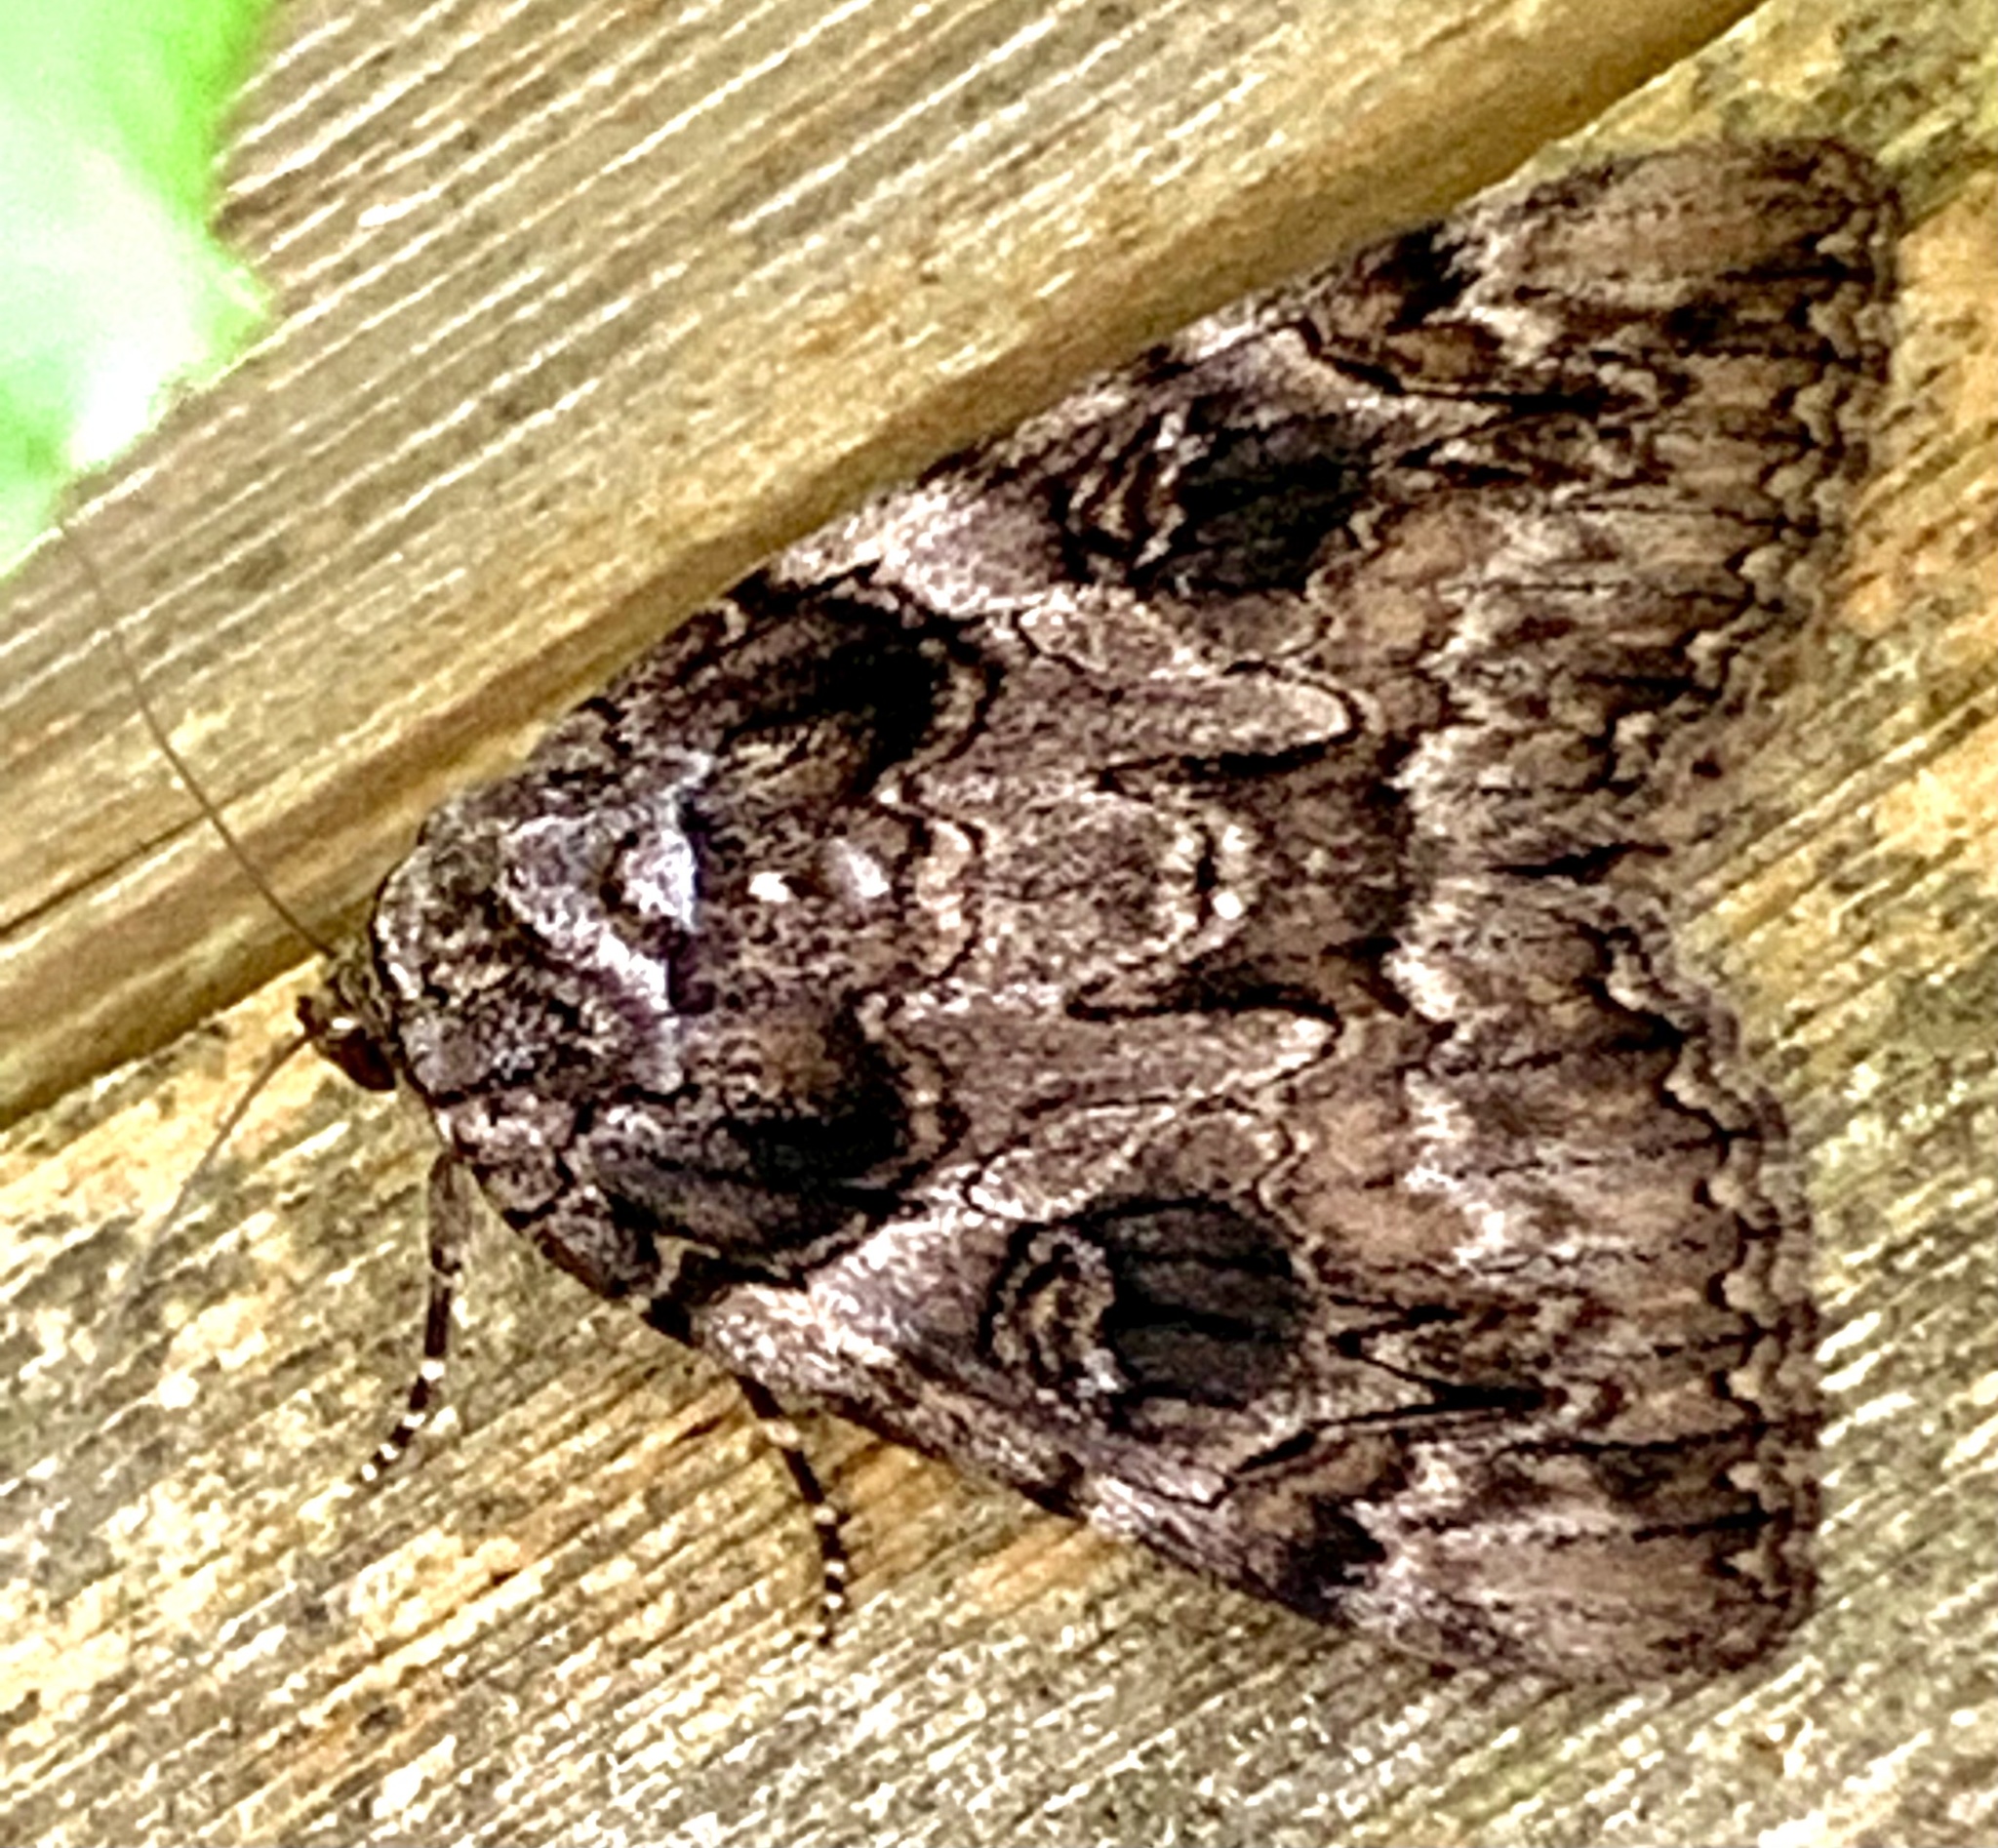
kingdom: Animalia
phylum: Arthropoda
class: Insecta
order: Lepidoptera
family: Erebidae
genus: Catocala
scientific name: Catocala piatrix
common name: The penitent underwing
